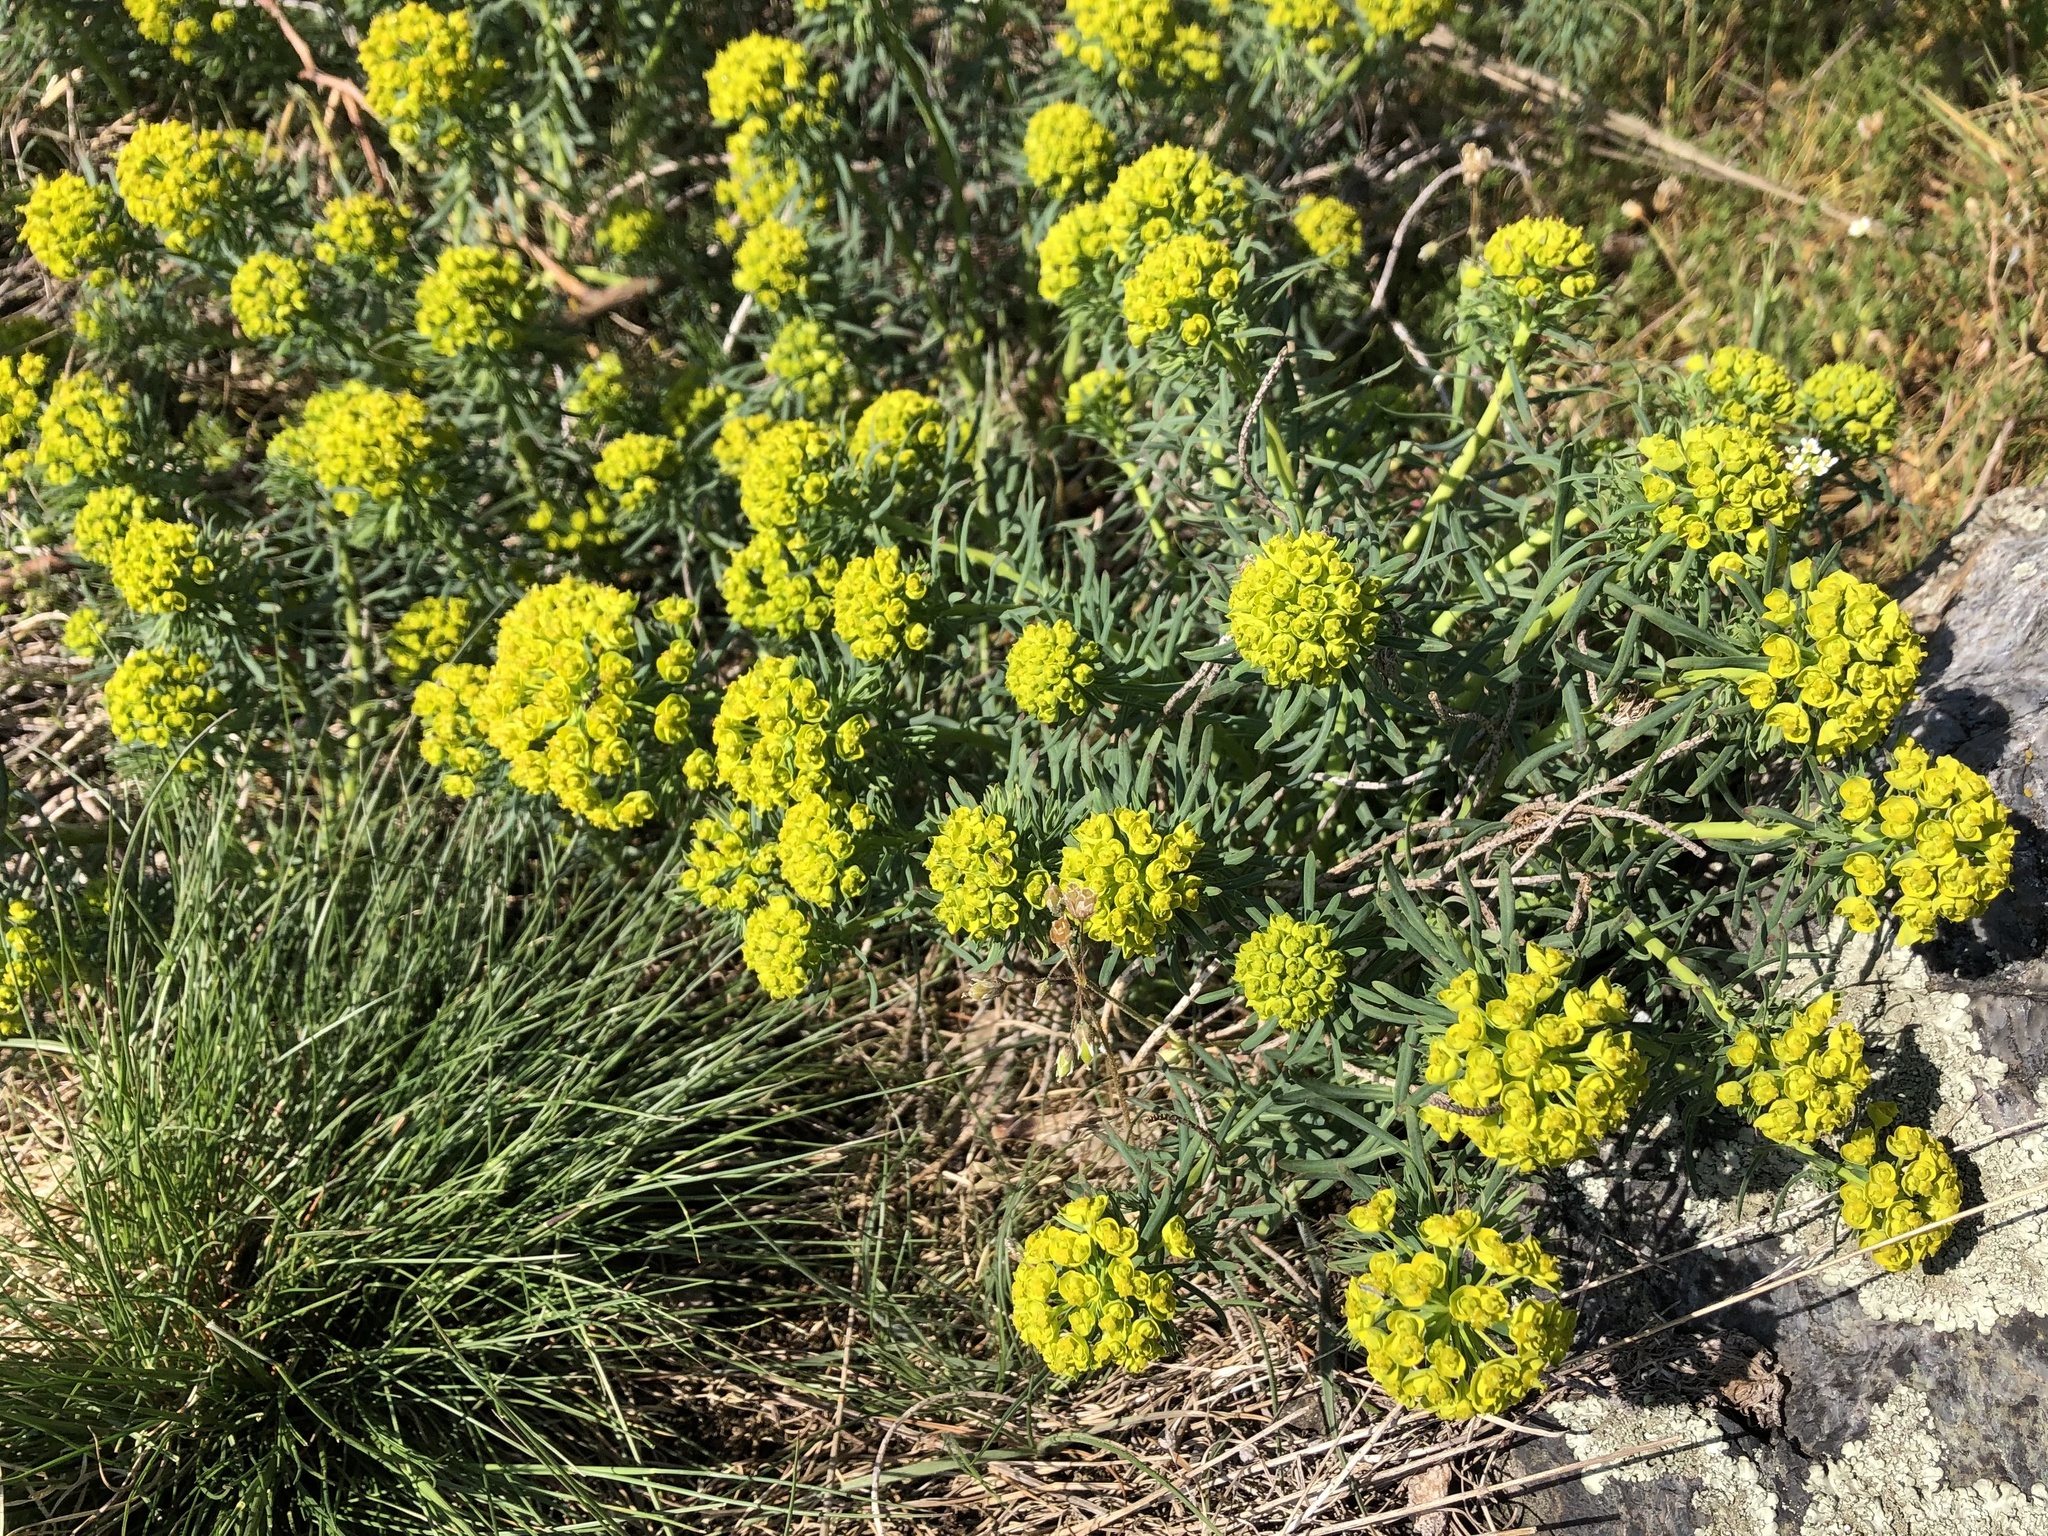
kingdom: Plantae
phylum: Tracheophyta
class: Magnoliopsida
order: Malpighiales
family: Euphorbiaceae
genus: Euphorbia
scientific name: Euphorbia cyparissias
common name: Cypress spurge
